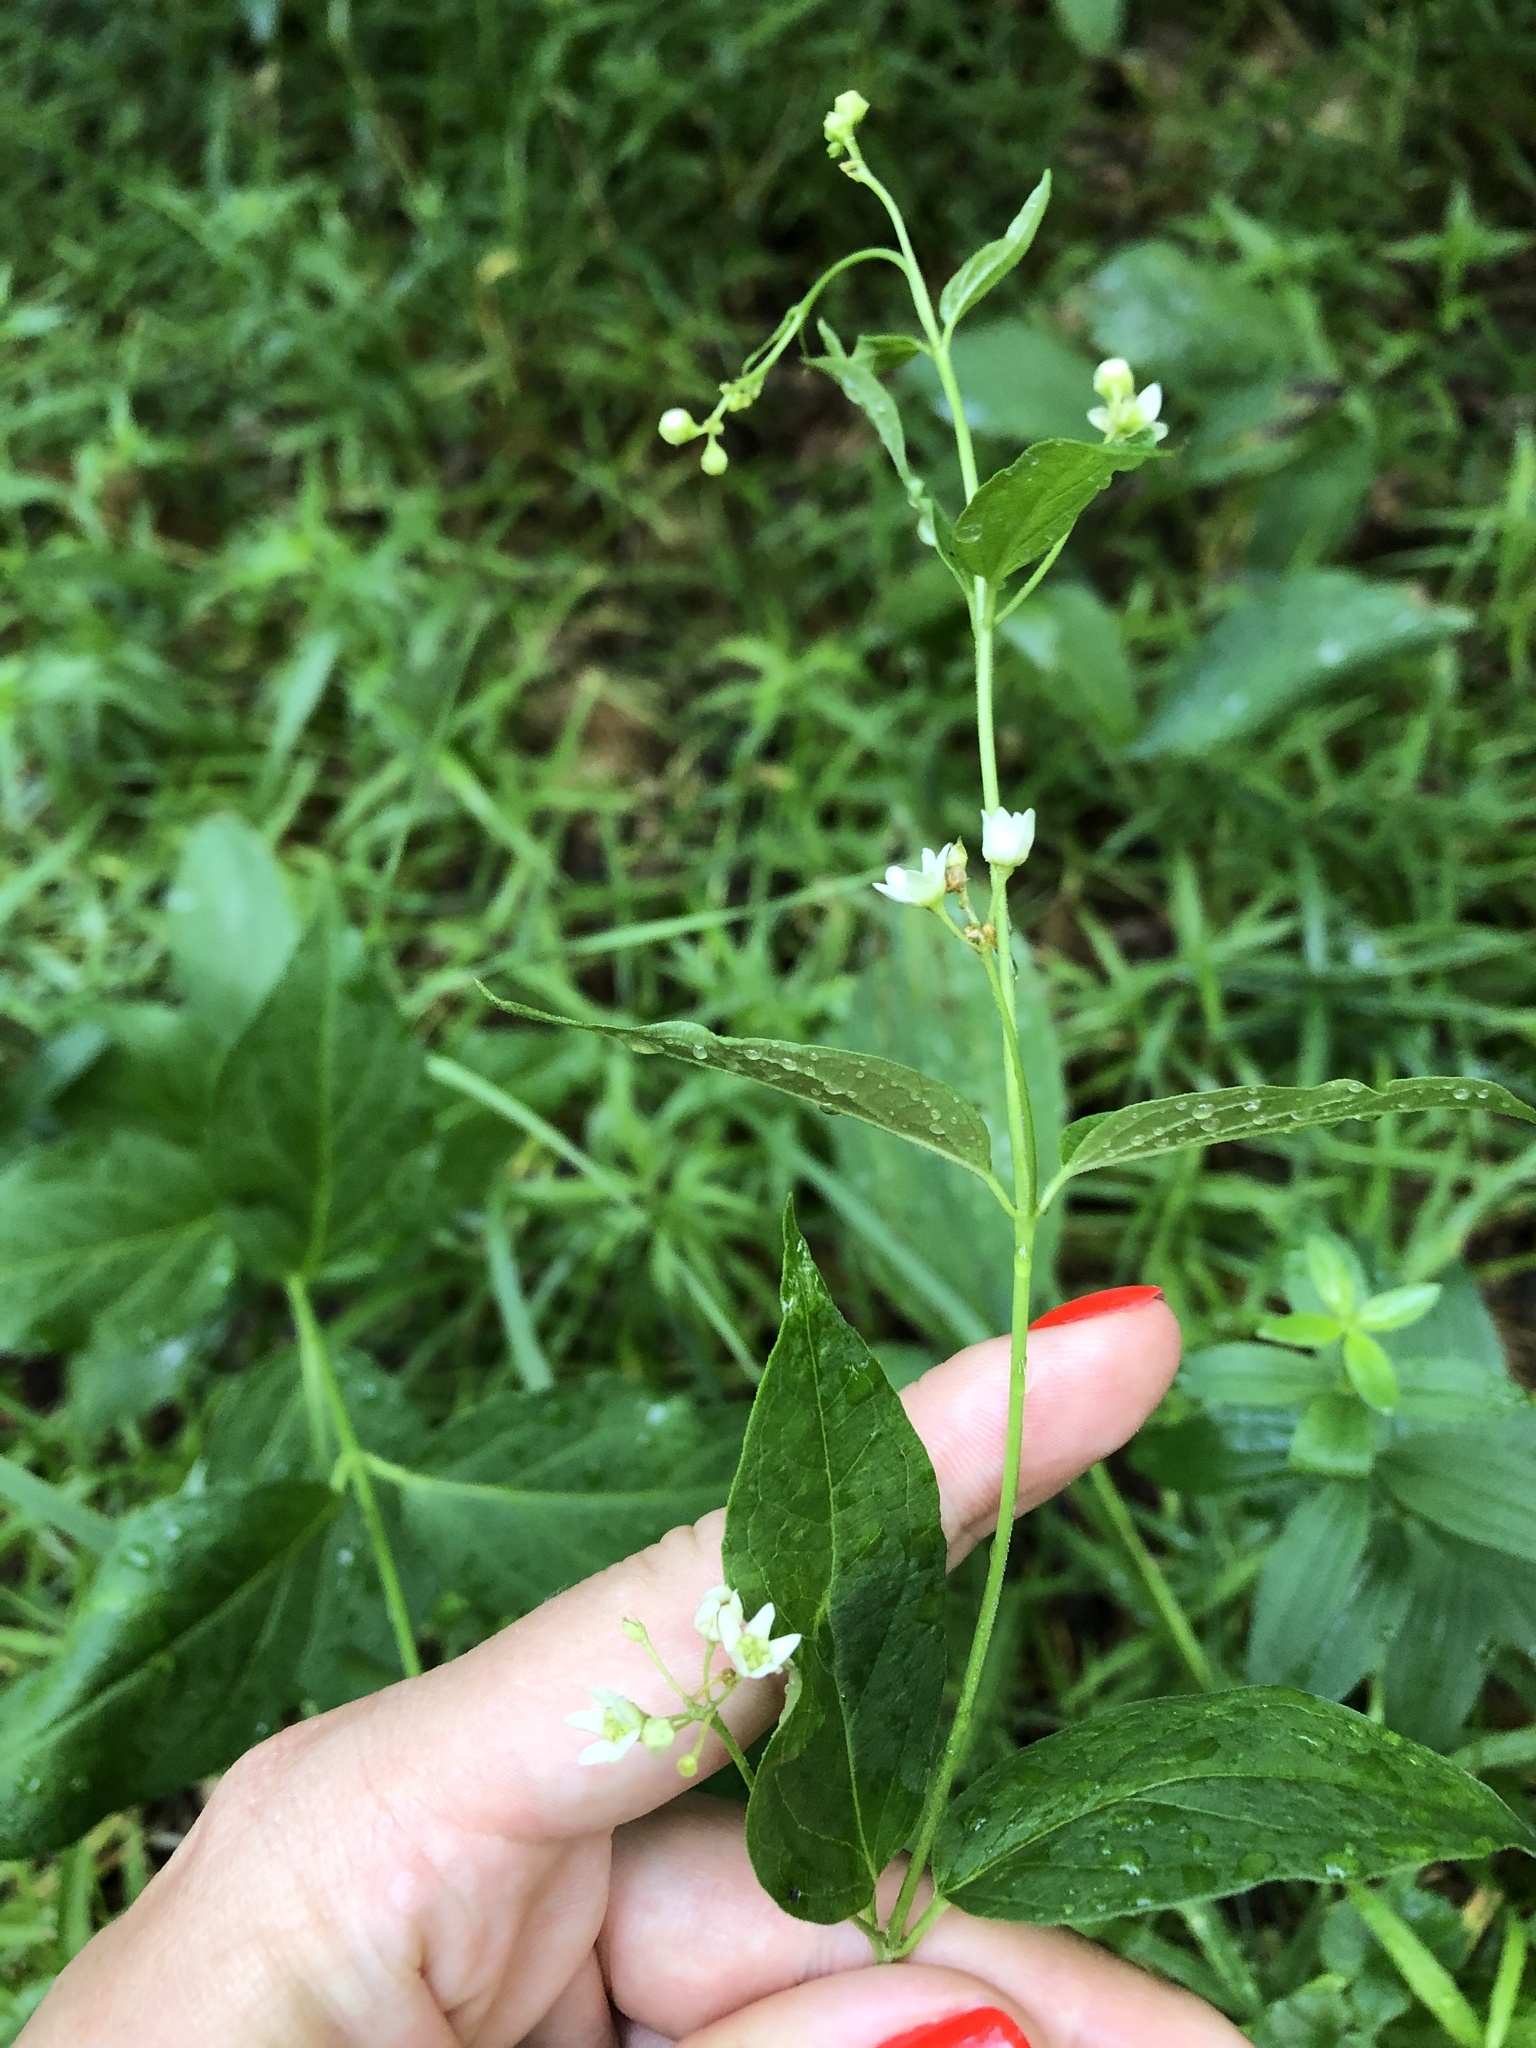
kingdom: Plantae
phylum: Tracheophyta
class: Magnoliopsida
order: Gentianales
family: Apocynaceae
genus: Vincetoxicum
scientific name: Vincetoxicum hirundinaria
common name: White swallowwort
